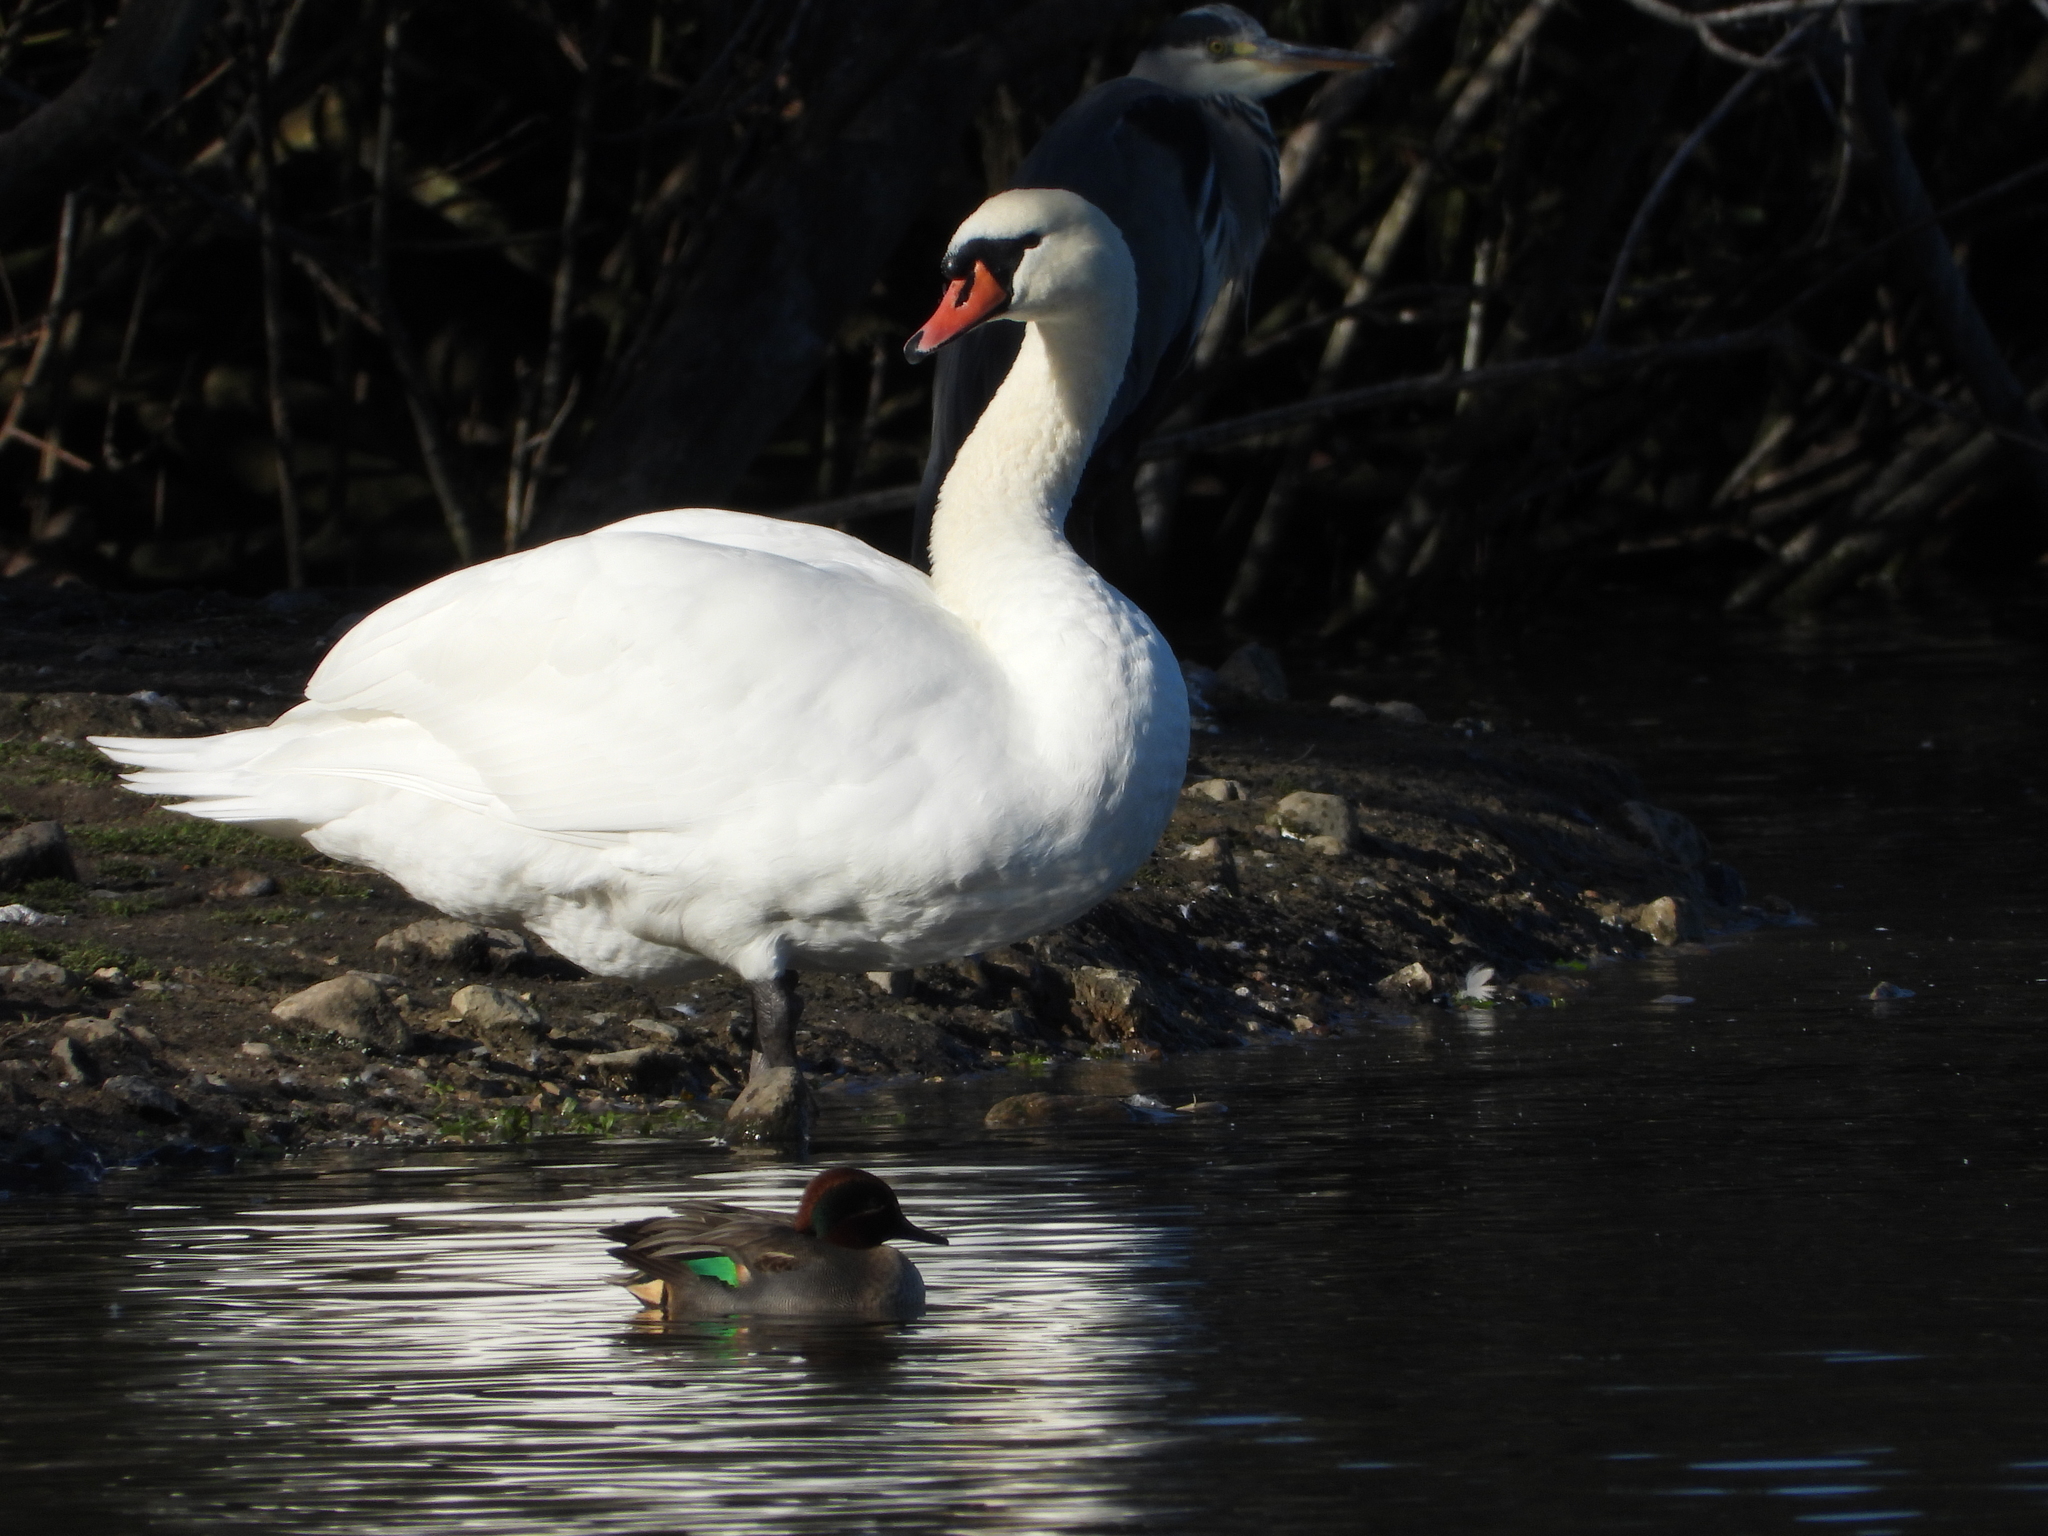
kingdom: Animalia
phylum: Chordata
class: Aves
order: Anseriformes
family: Anatidae
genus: Cygnus
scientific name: Cygnus olor
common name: Mute swan
